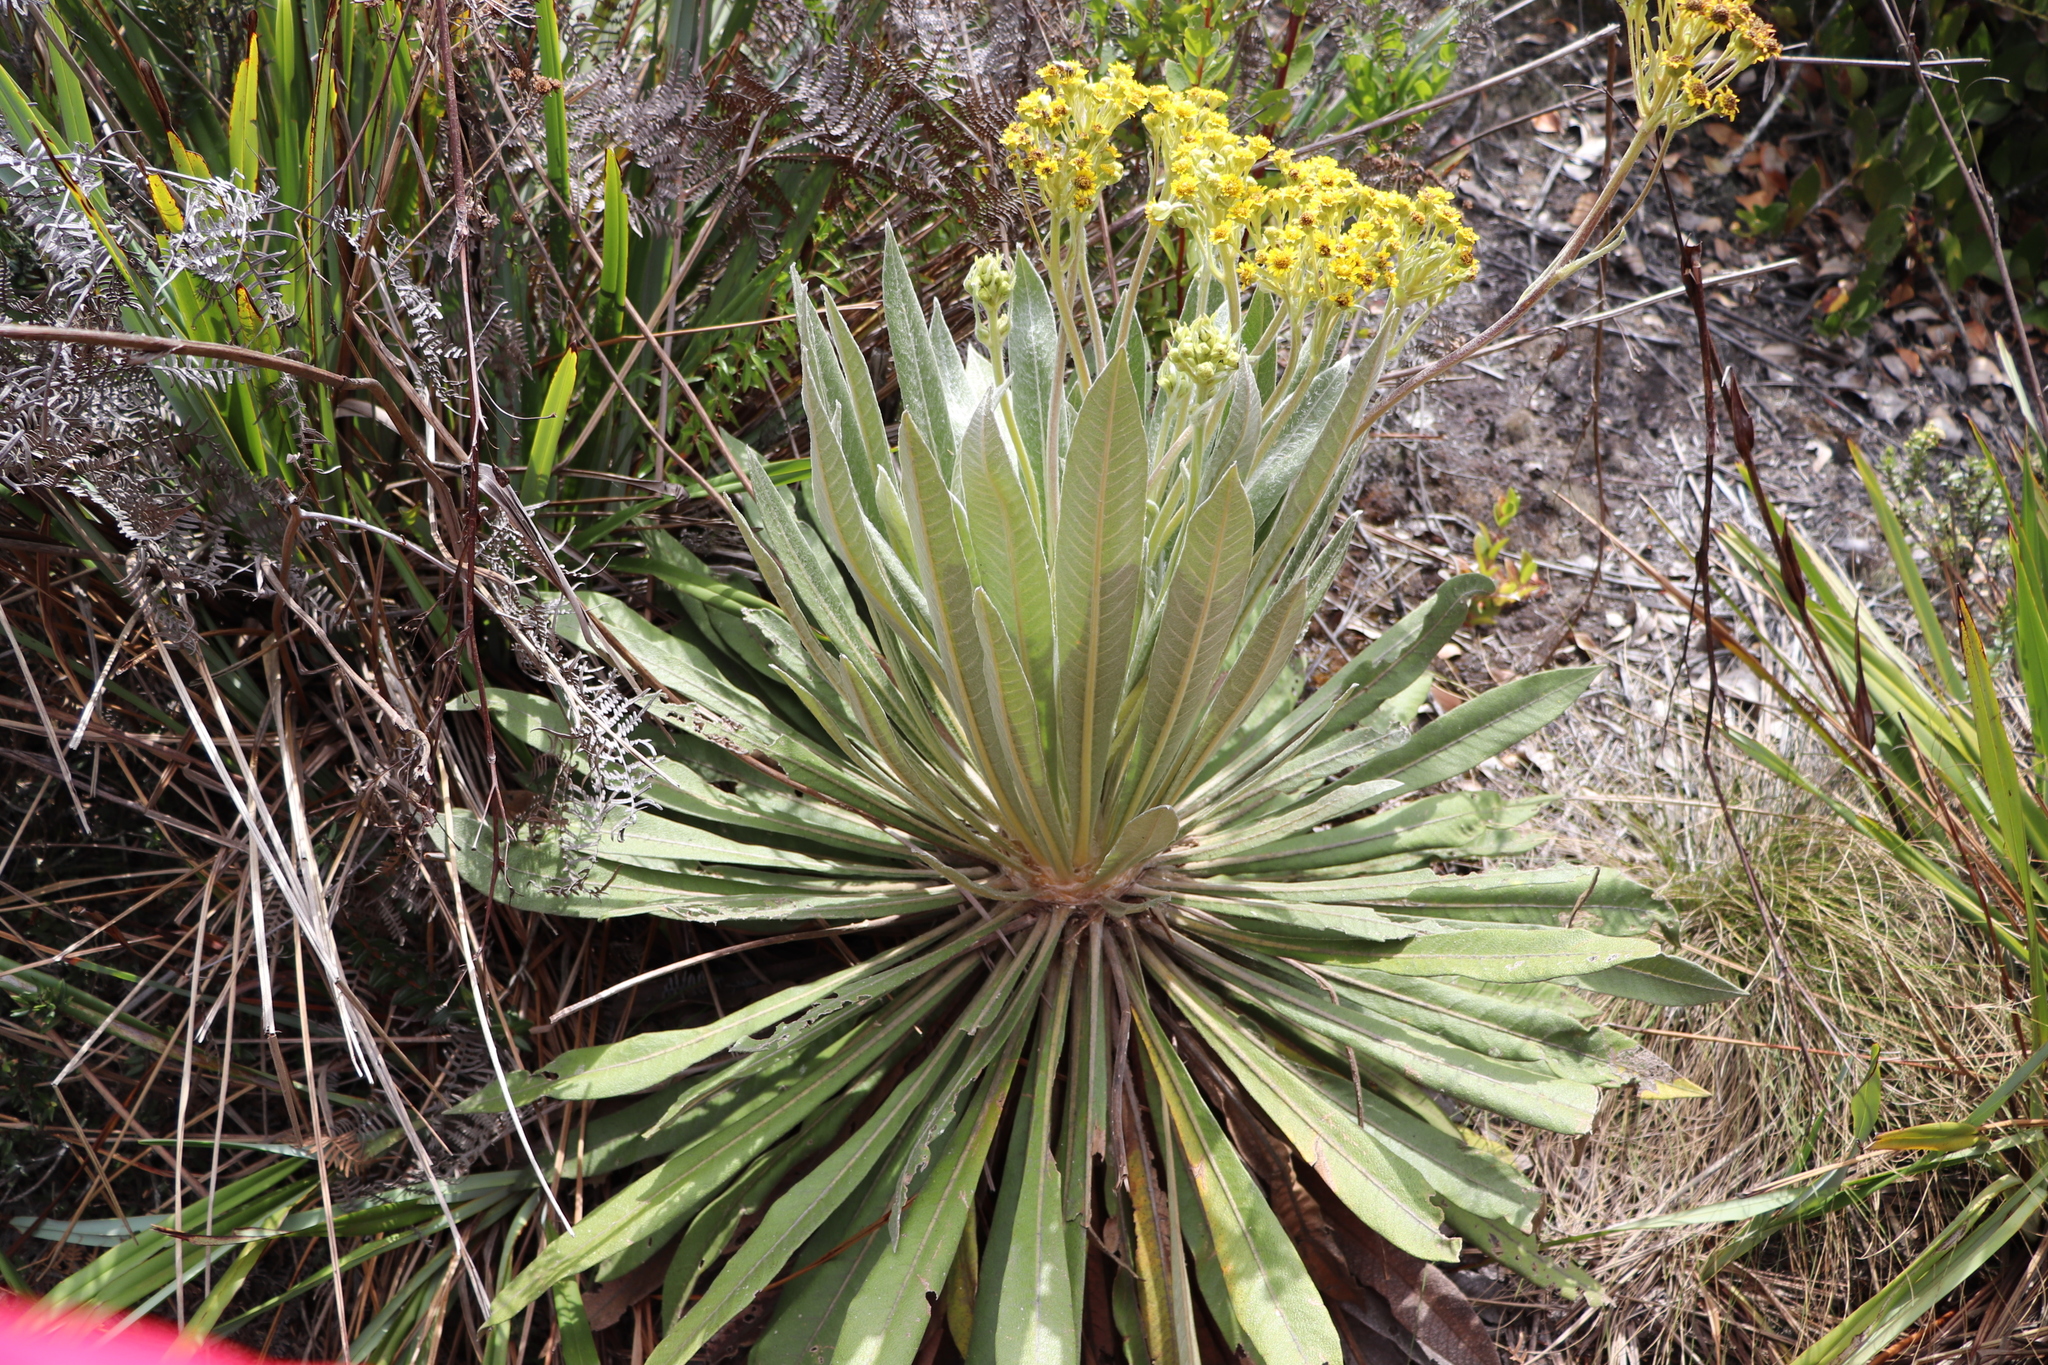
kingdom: Plantae
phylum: Tracheophyta
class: Magnoliopsida
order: Asterales
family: Asteraceae
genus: Espeletia
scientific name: Espeletia corymbosa
